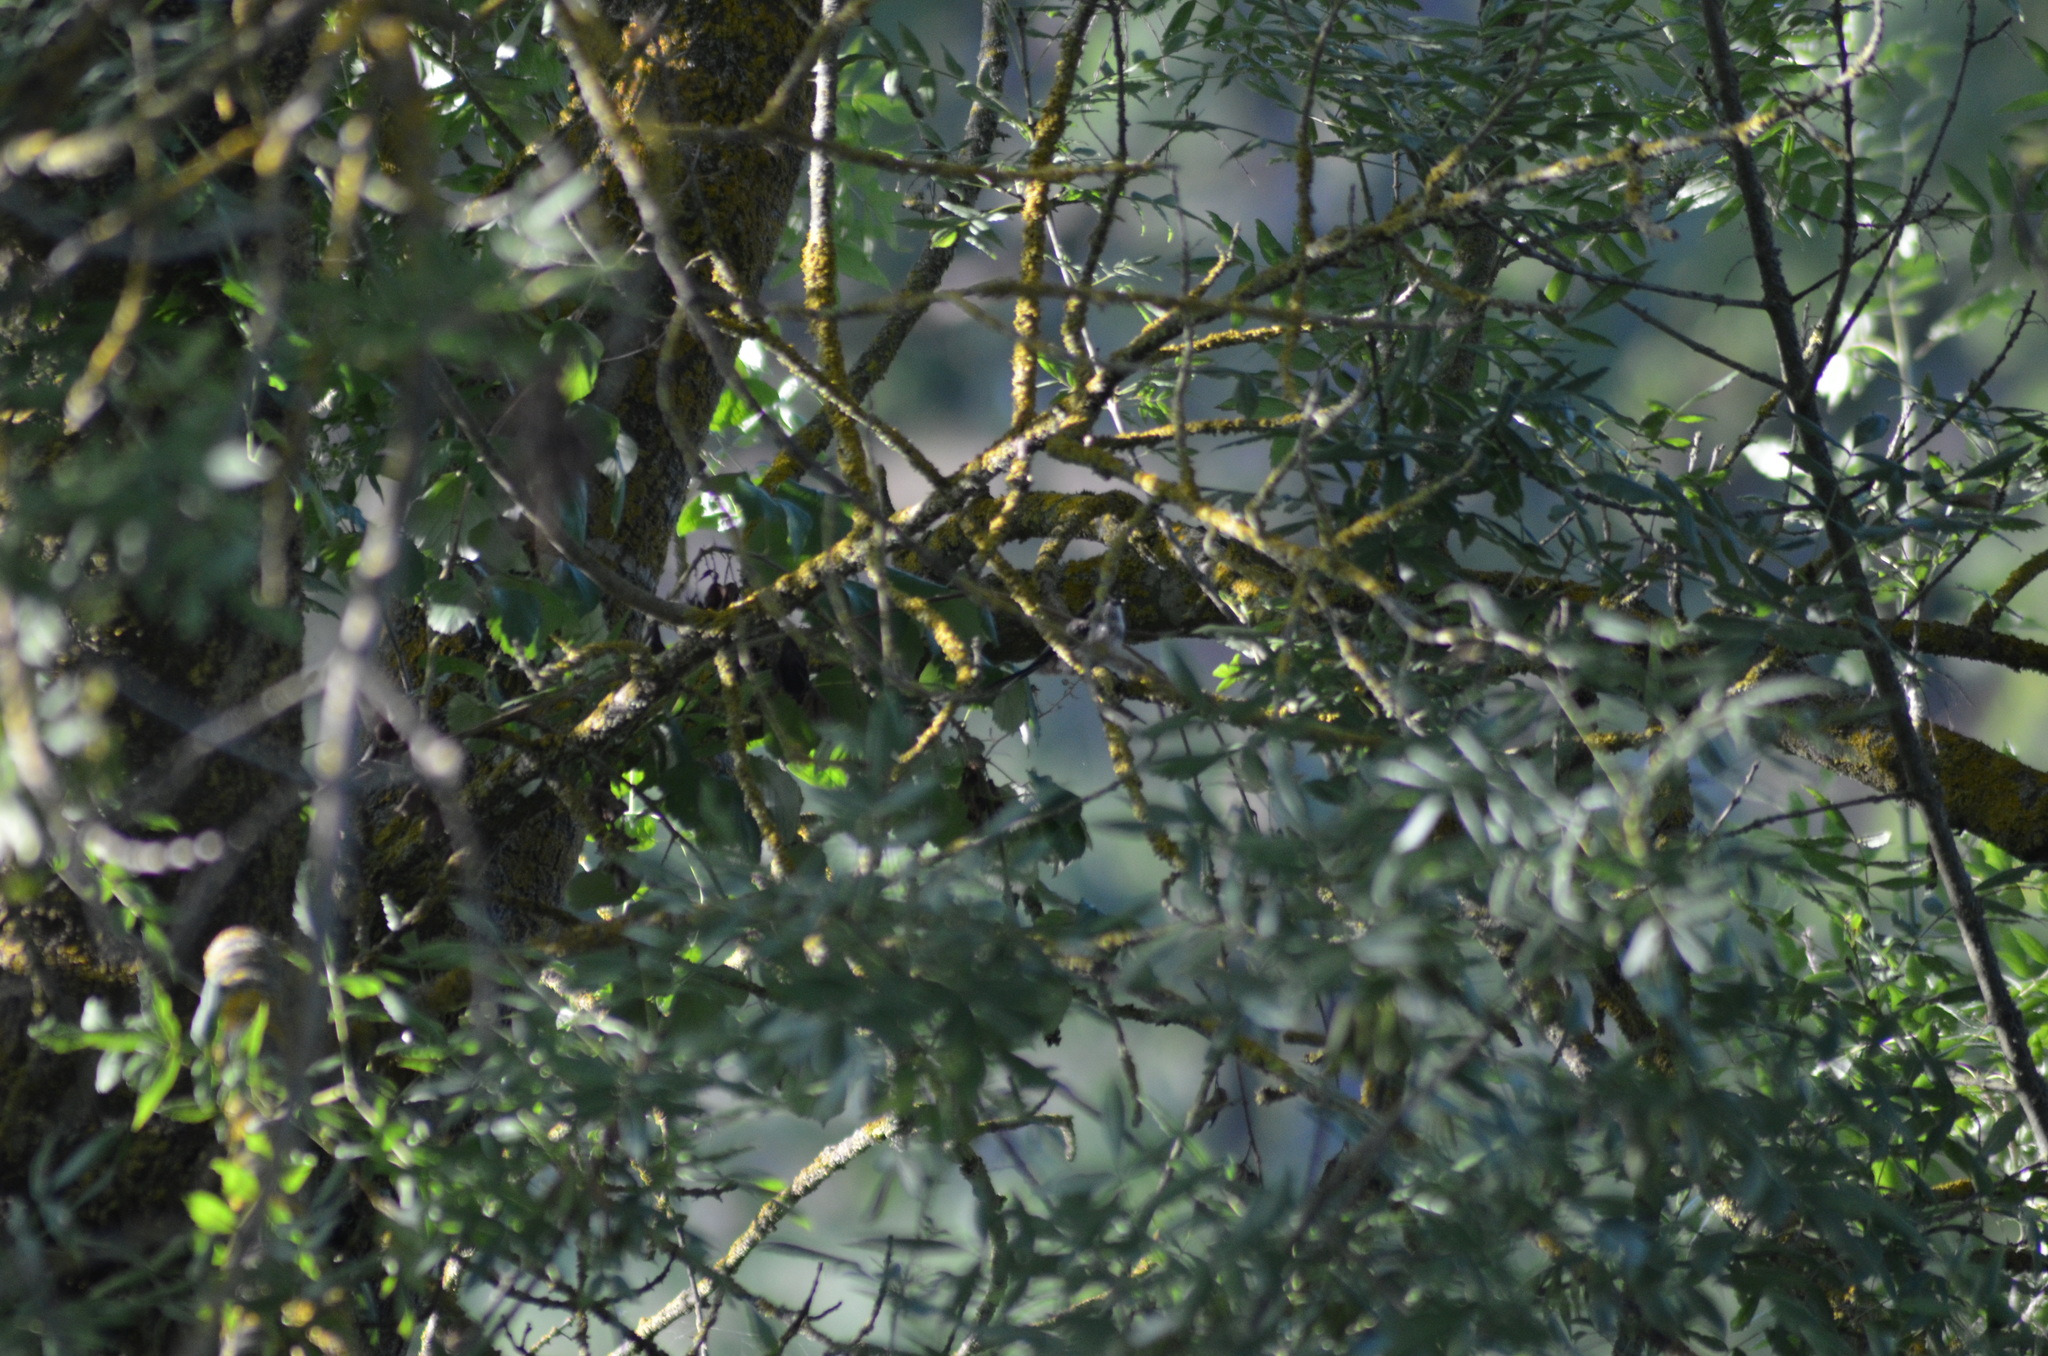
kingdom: Animalia
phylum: Chordata
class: Aves
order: Passeriformes
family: Aegithalidae
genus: Aegithalos
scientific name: Aegithalos caudatus
